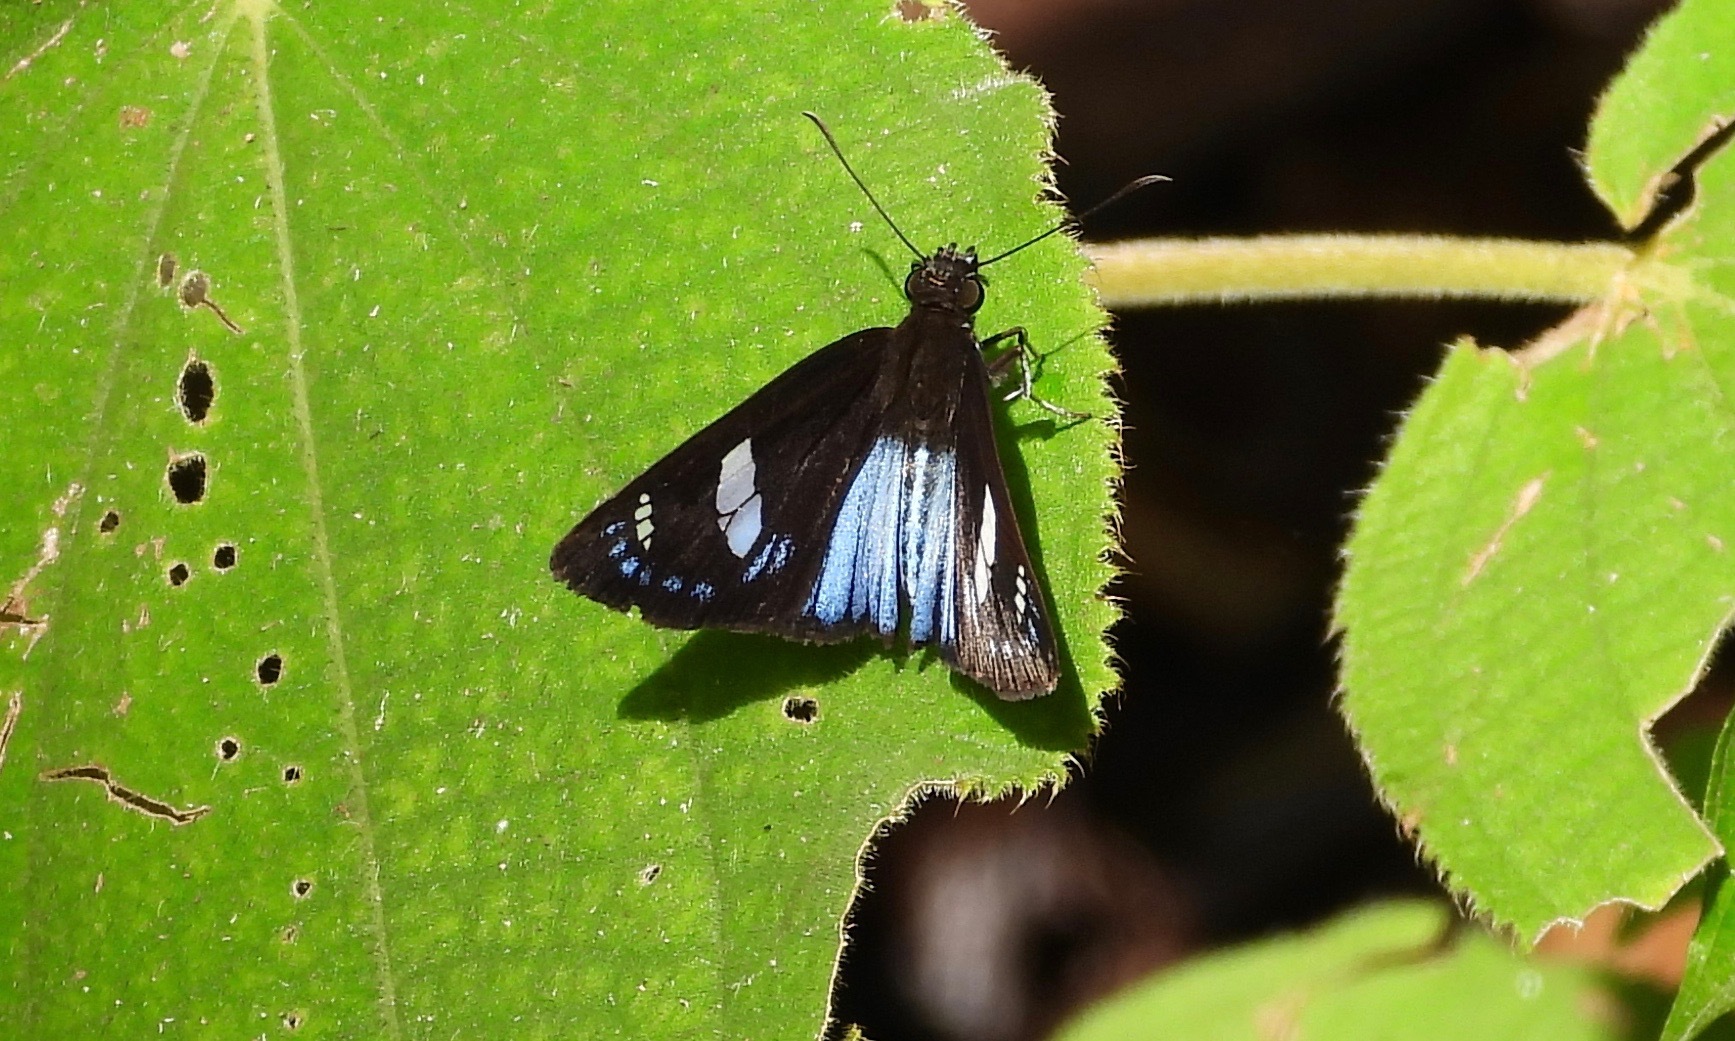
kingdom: Animalia
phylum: Arthropoda
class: Insecta
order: Lepidoptera
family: Hesperiidae
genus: Pythonides
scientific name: Pythonides jovianus
